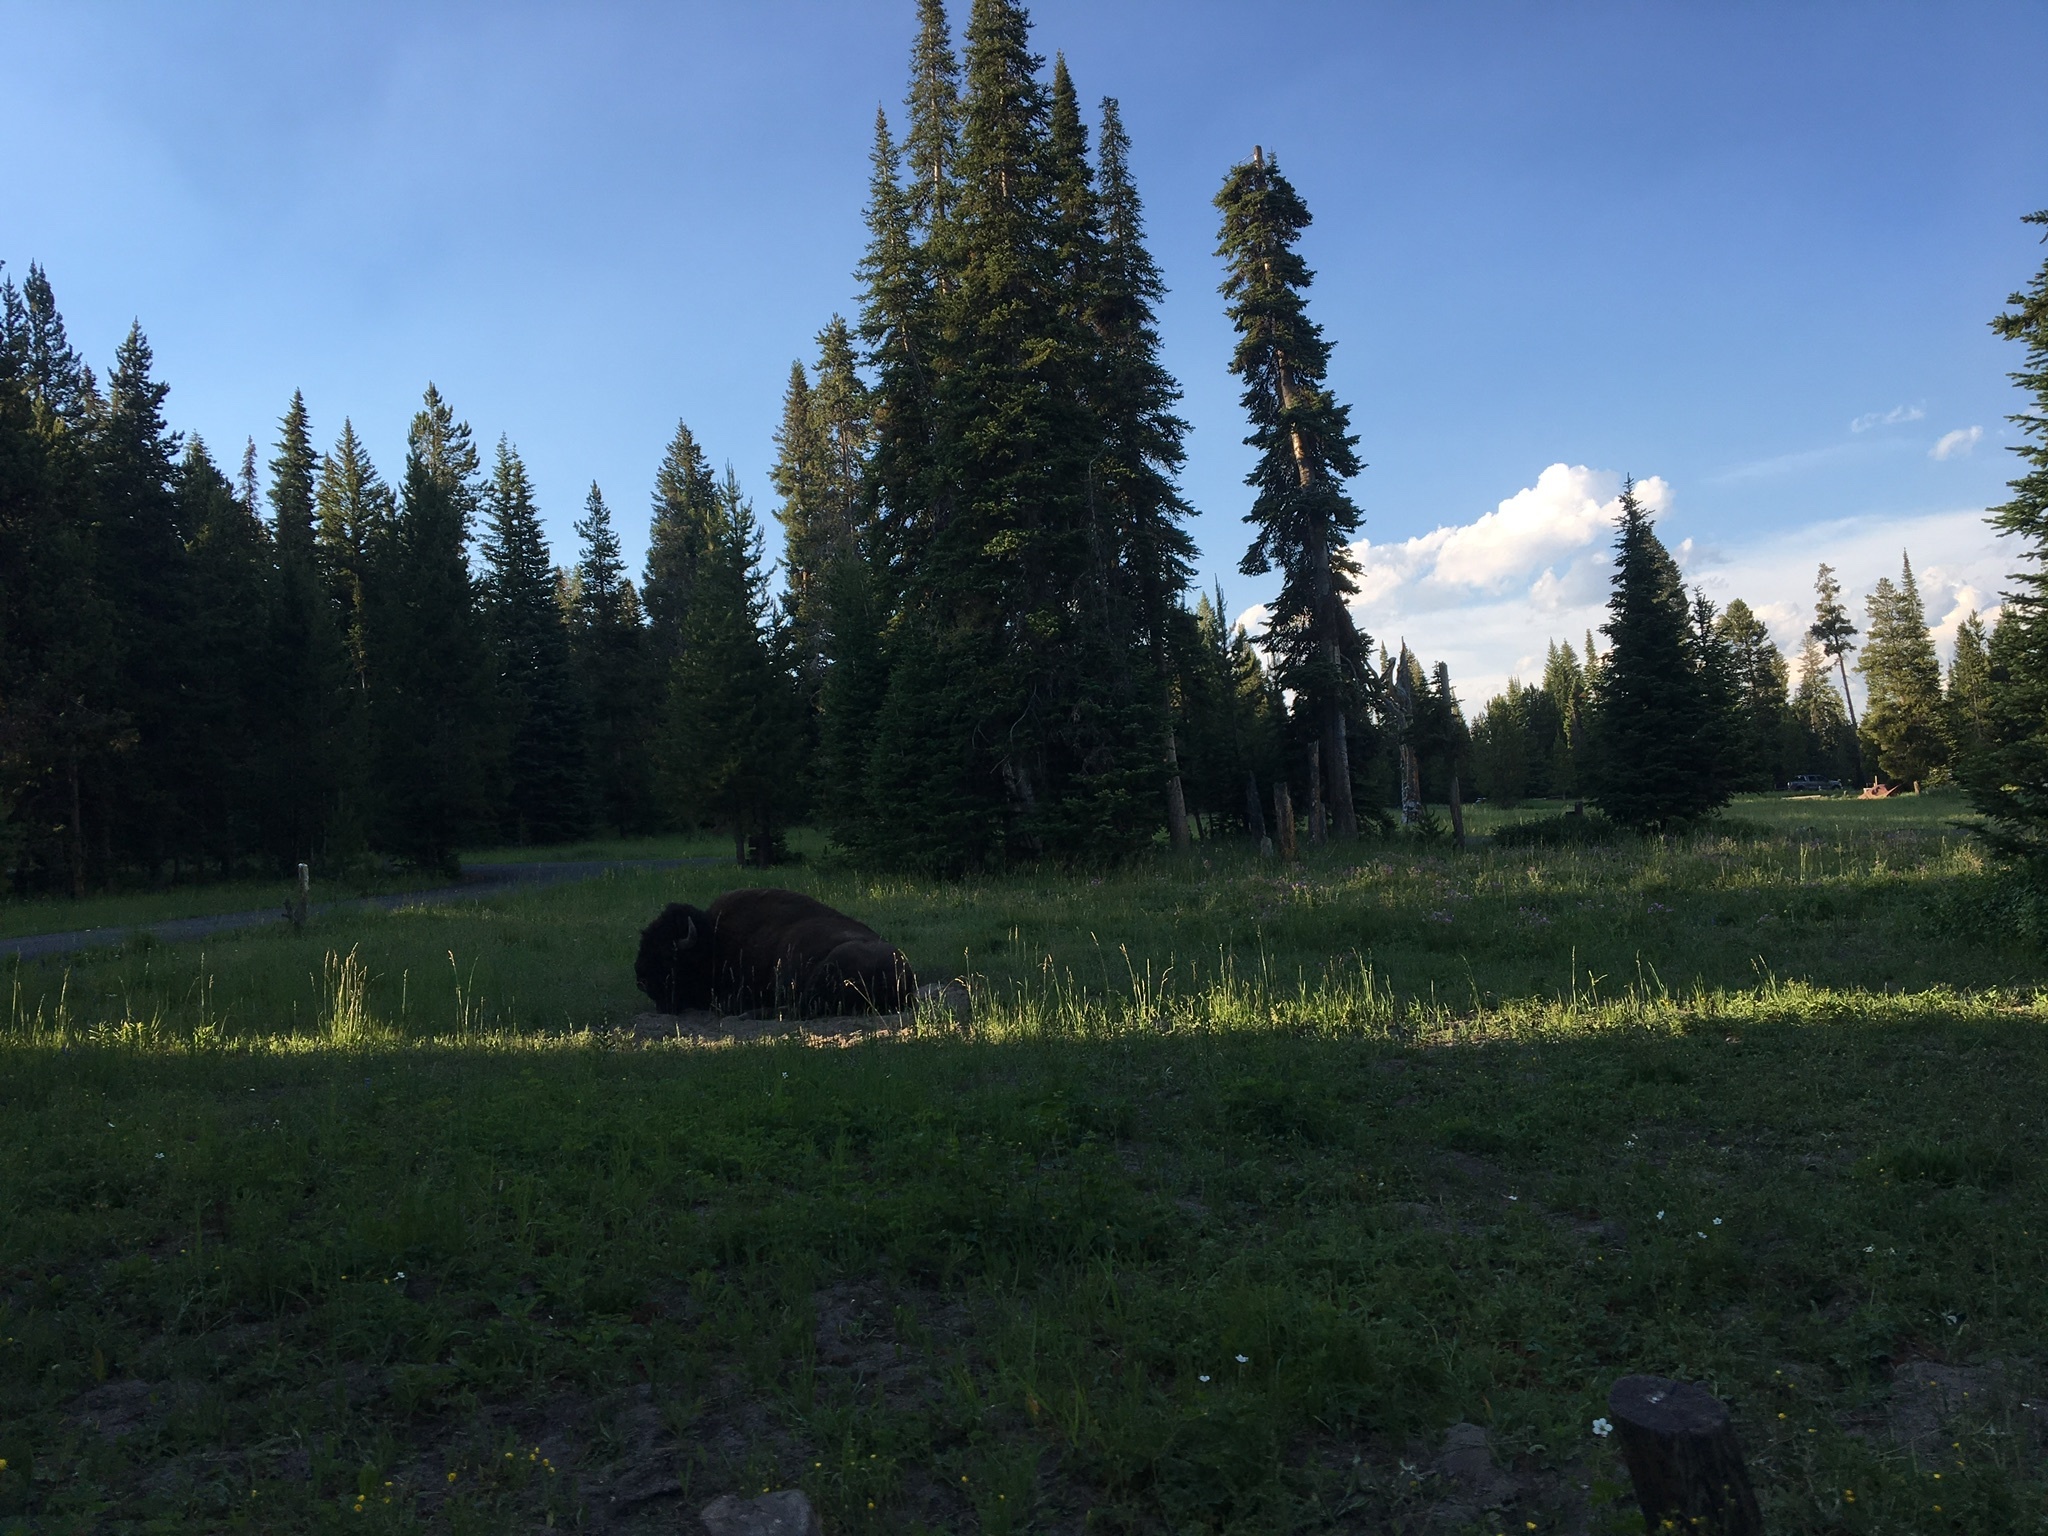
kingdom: Animalia
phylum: Chordata
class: Mammalia
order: Artiodactyla
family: Bovidae
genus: Bison
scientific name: Bison bison
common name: American bison
